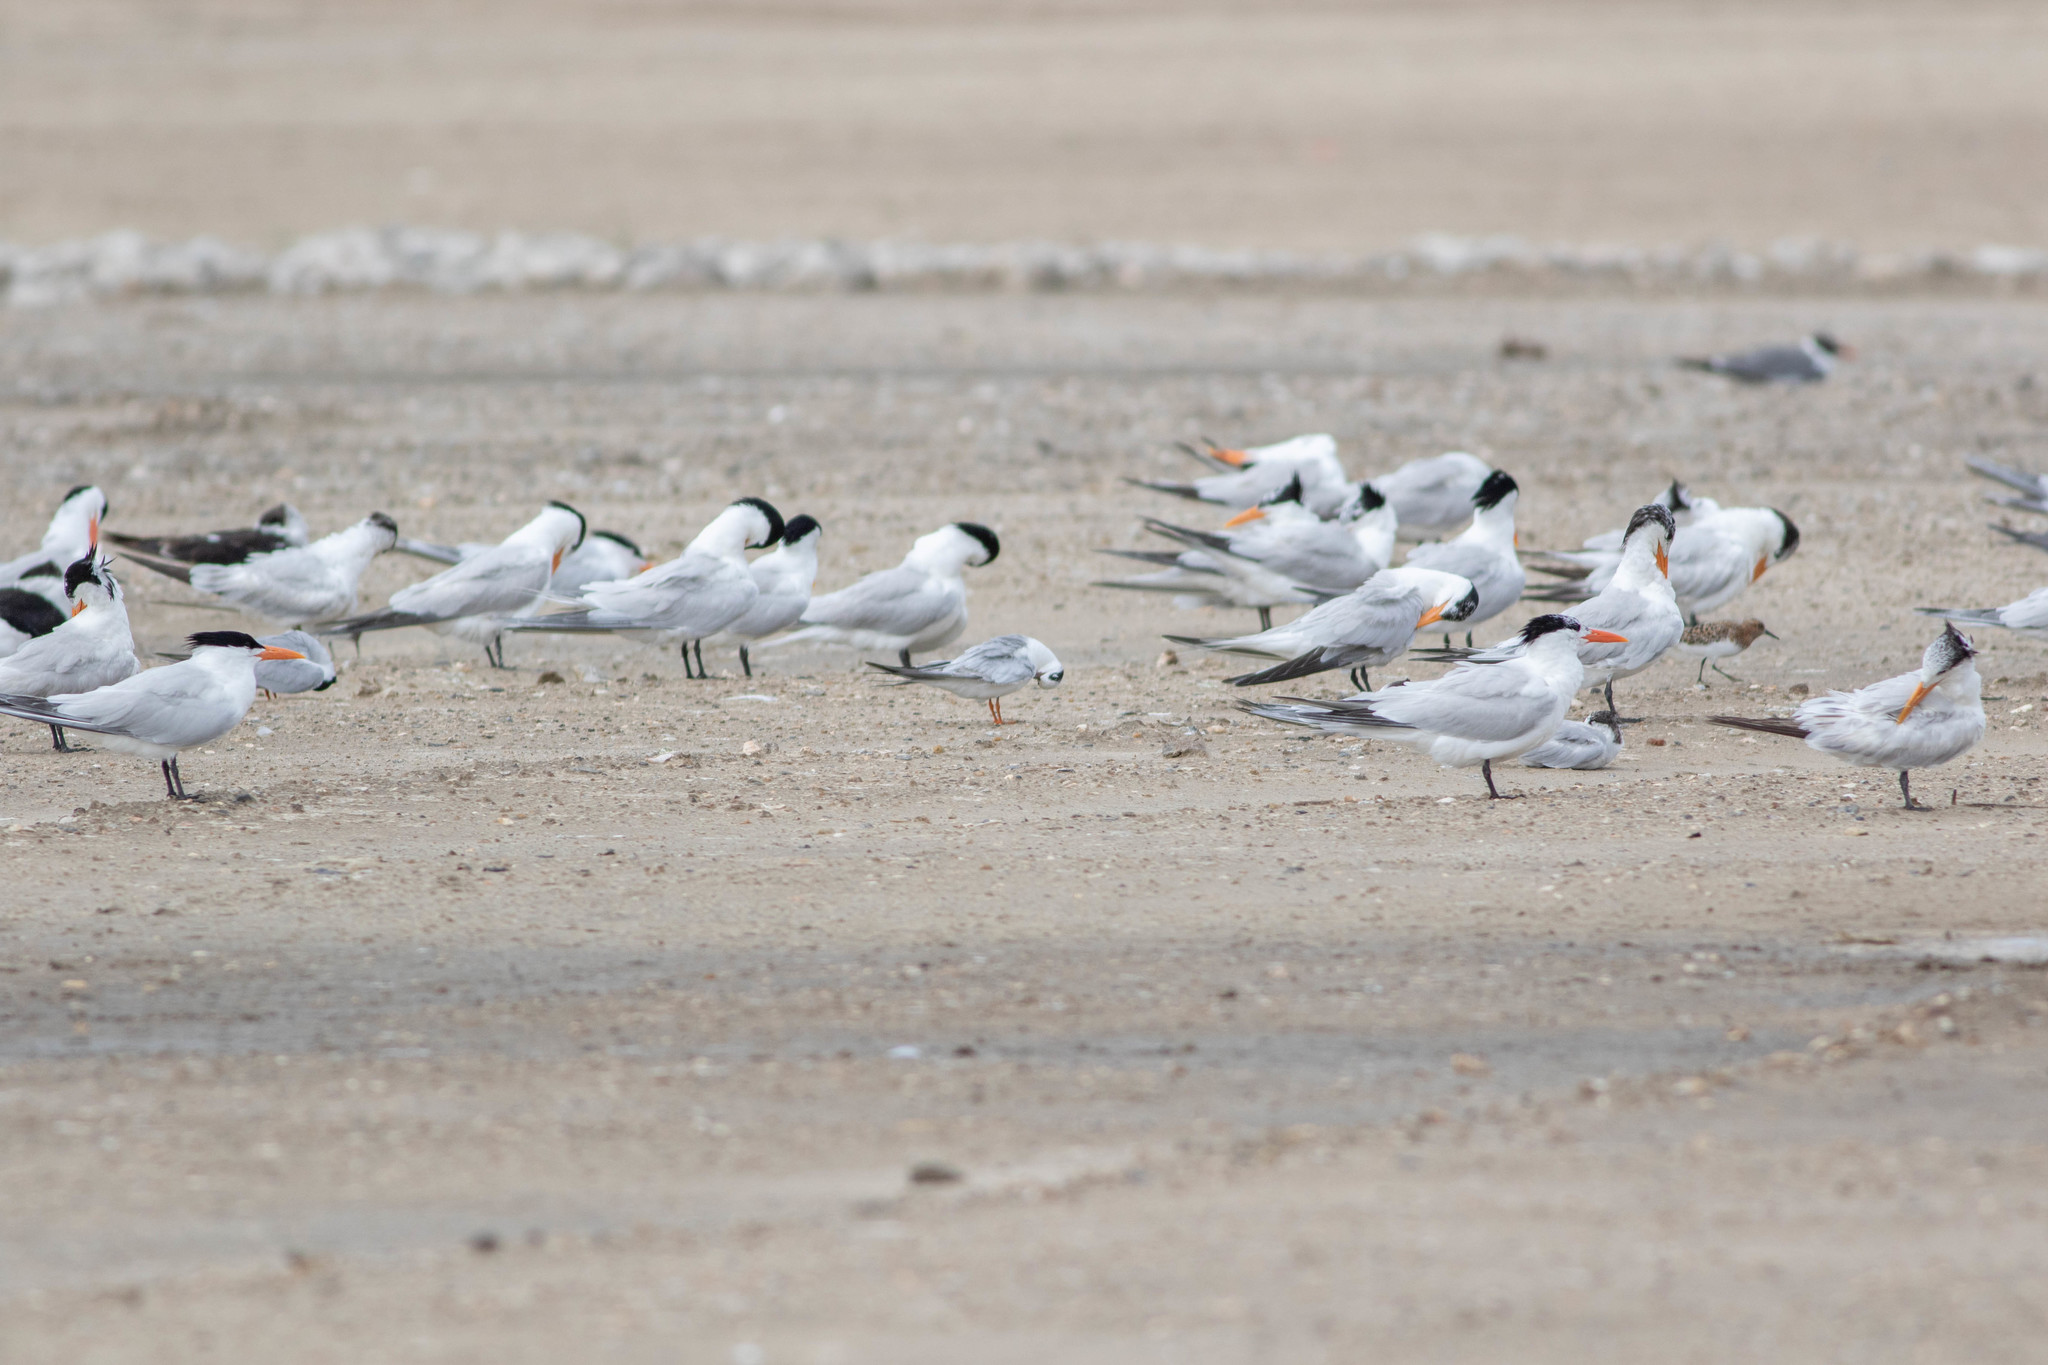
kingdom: Animalia
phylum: Chordata
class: Aves
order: Charadriiformes
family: Laridae
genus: Thalasseus
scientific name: Thalasseus maximus
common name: Royal tern
